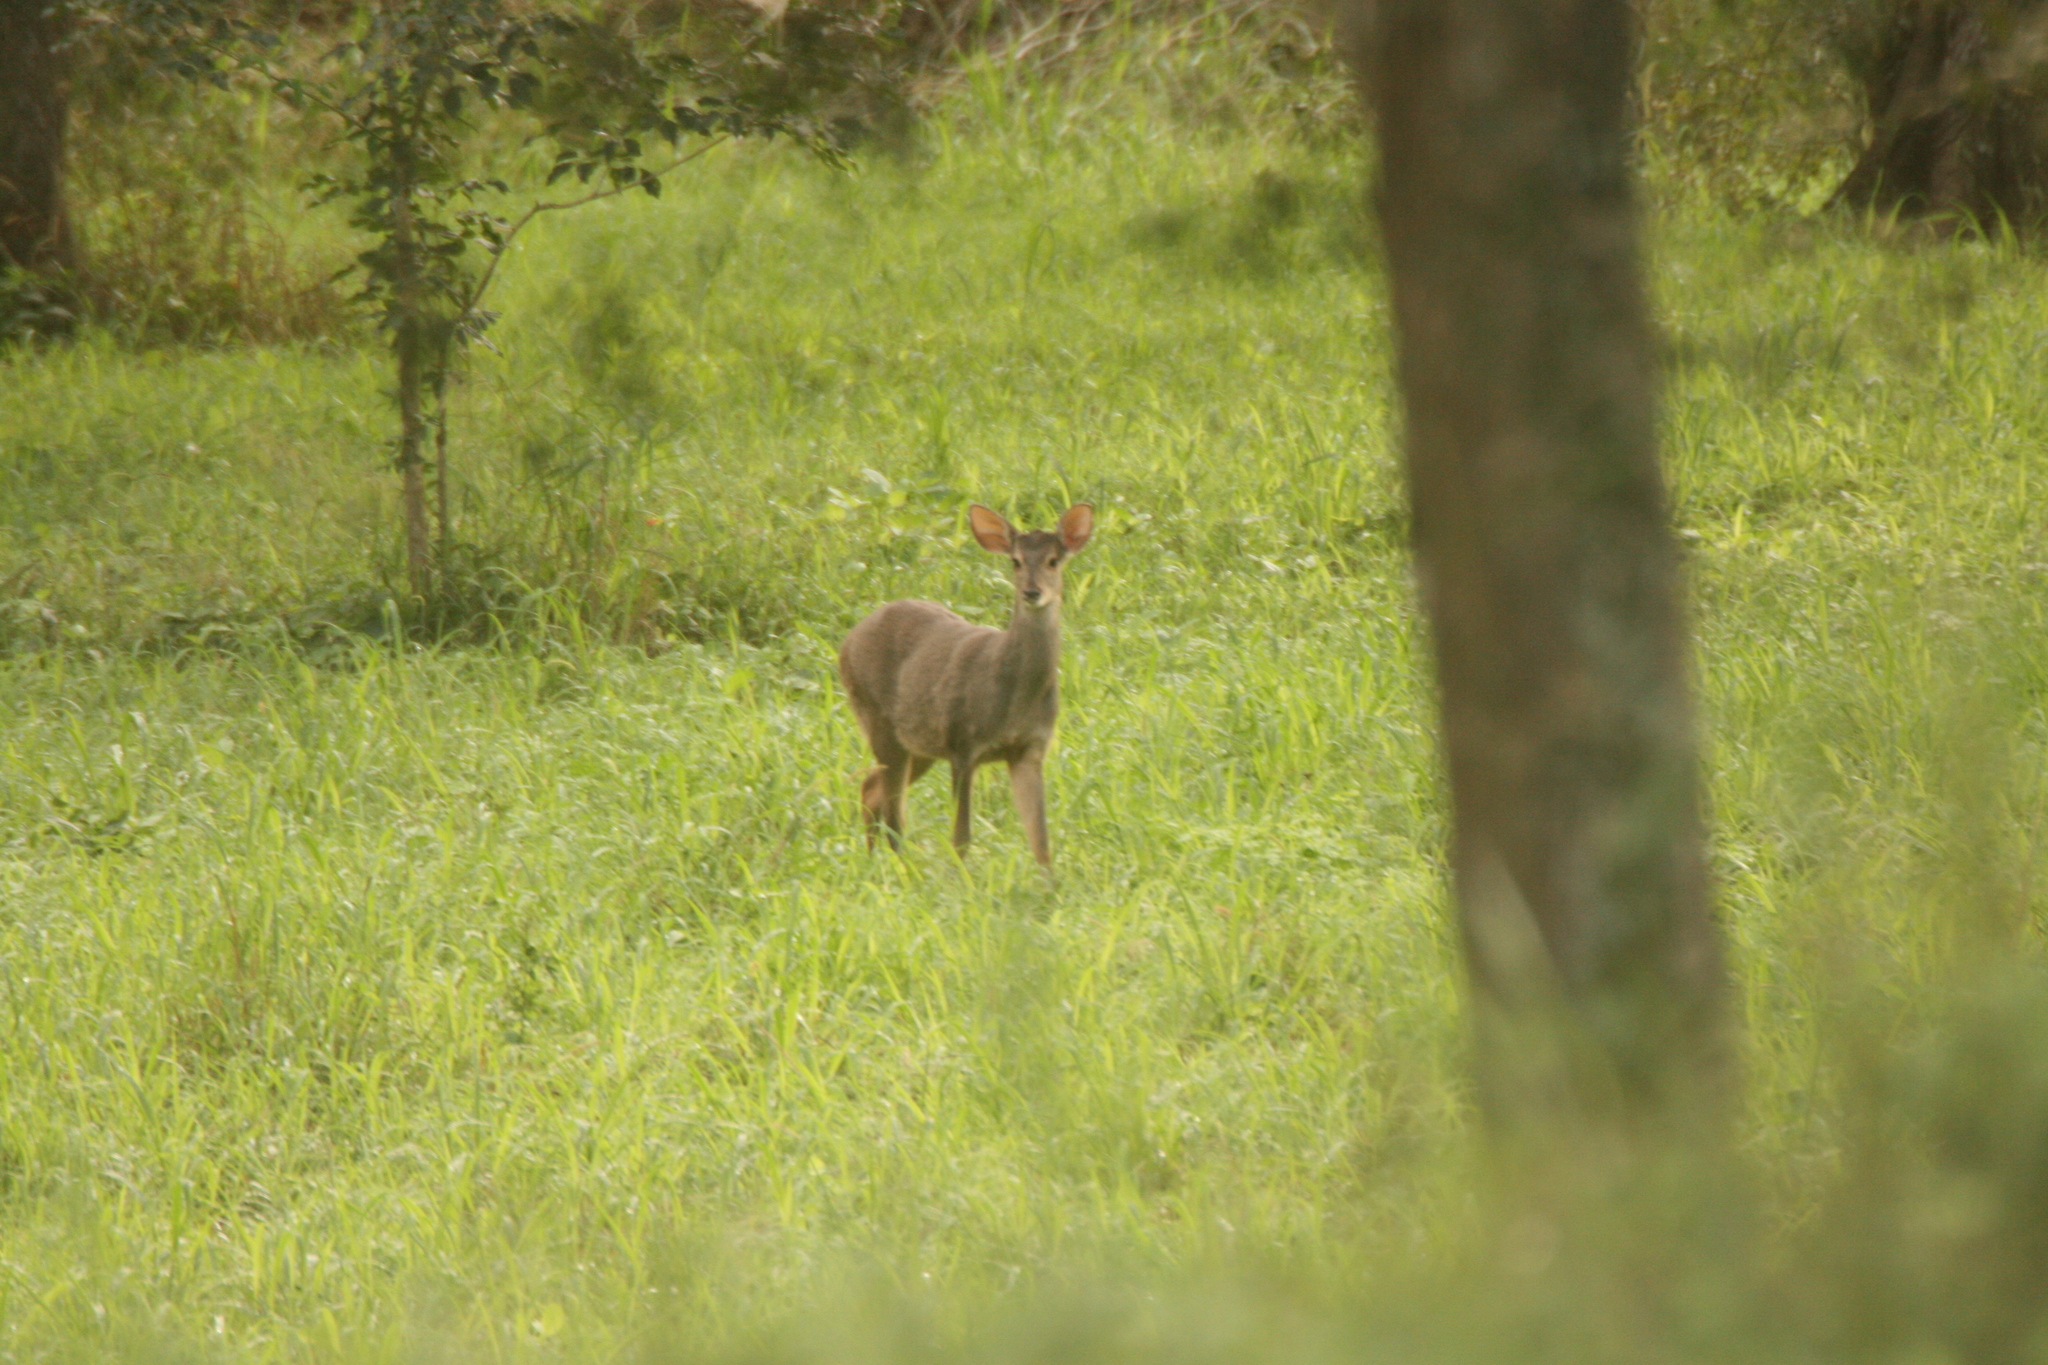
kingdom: Animalia
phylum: Chordata
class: Mammalia
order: Artiodactyla
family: Cervidae
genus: Mazama
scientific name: Mazama gouazoubira
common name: Gray brocket
